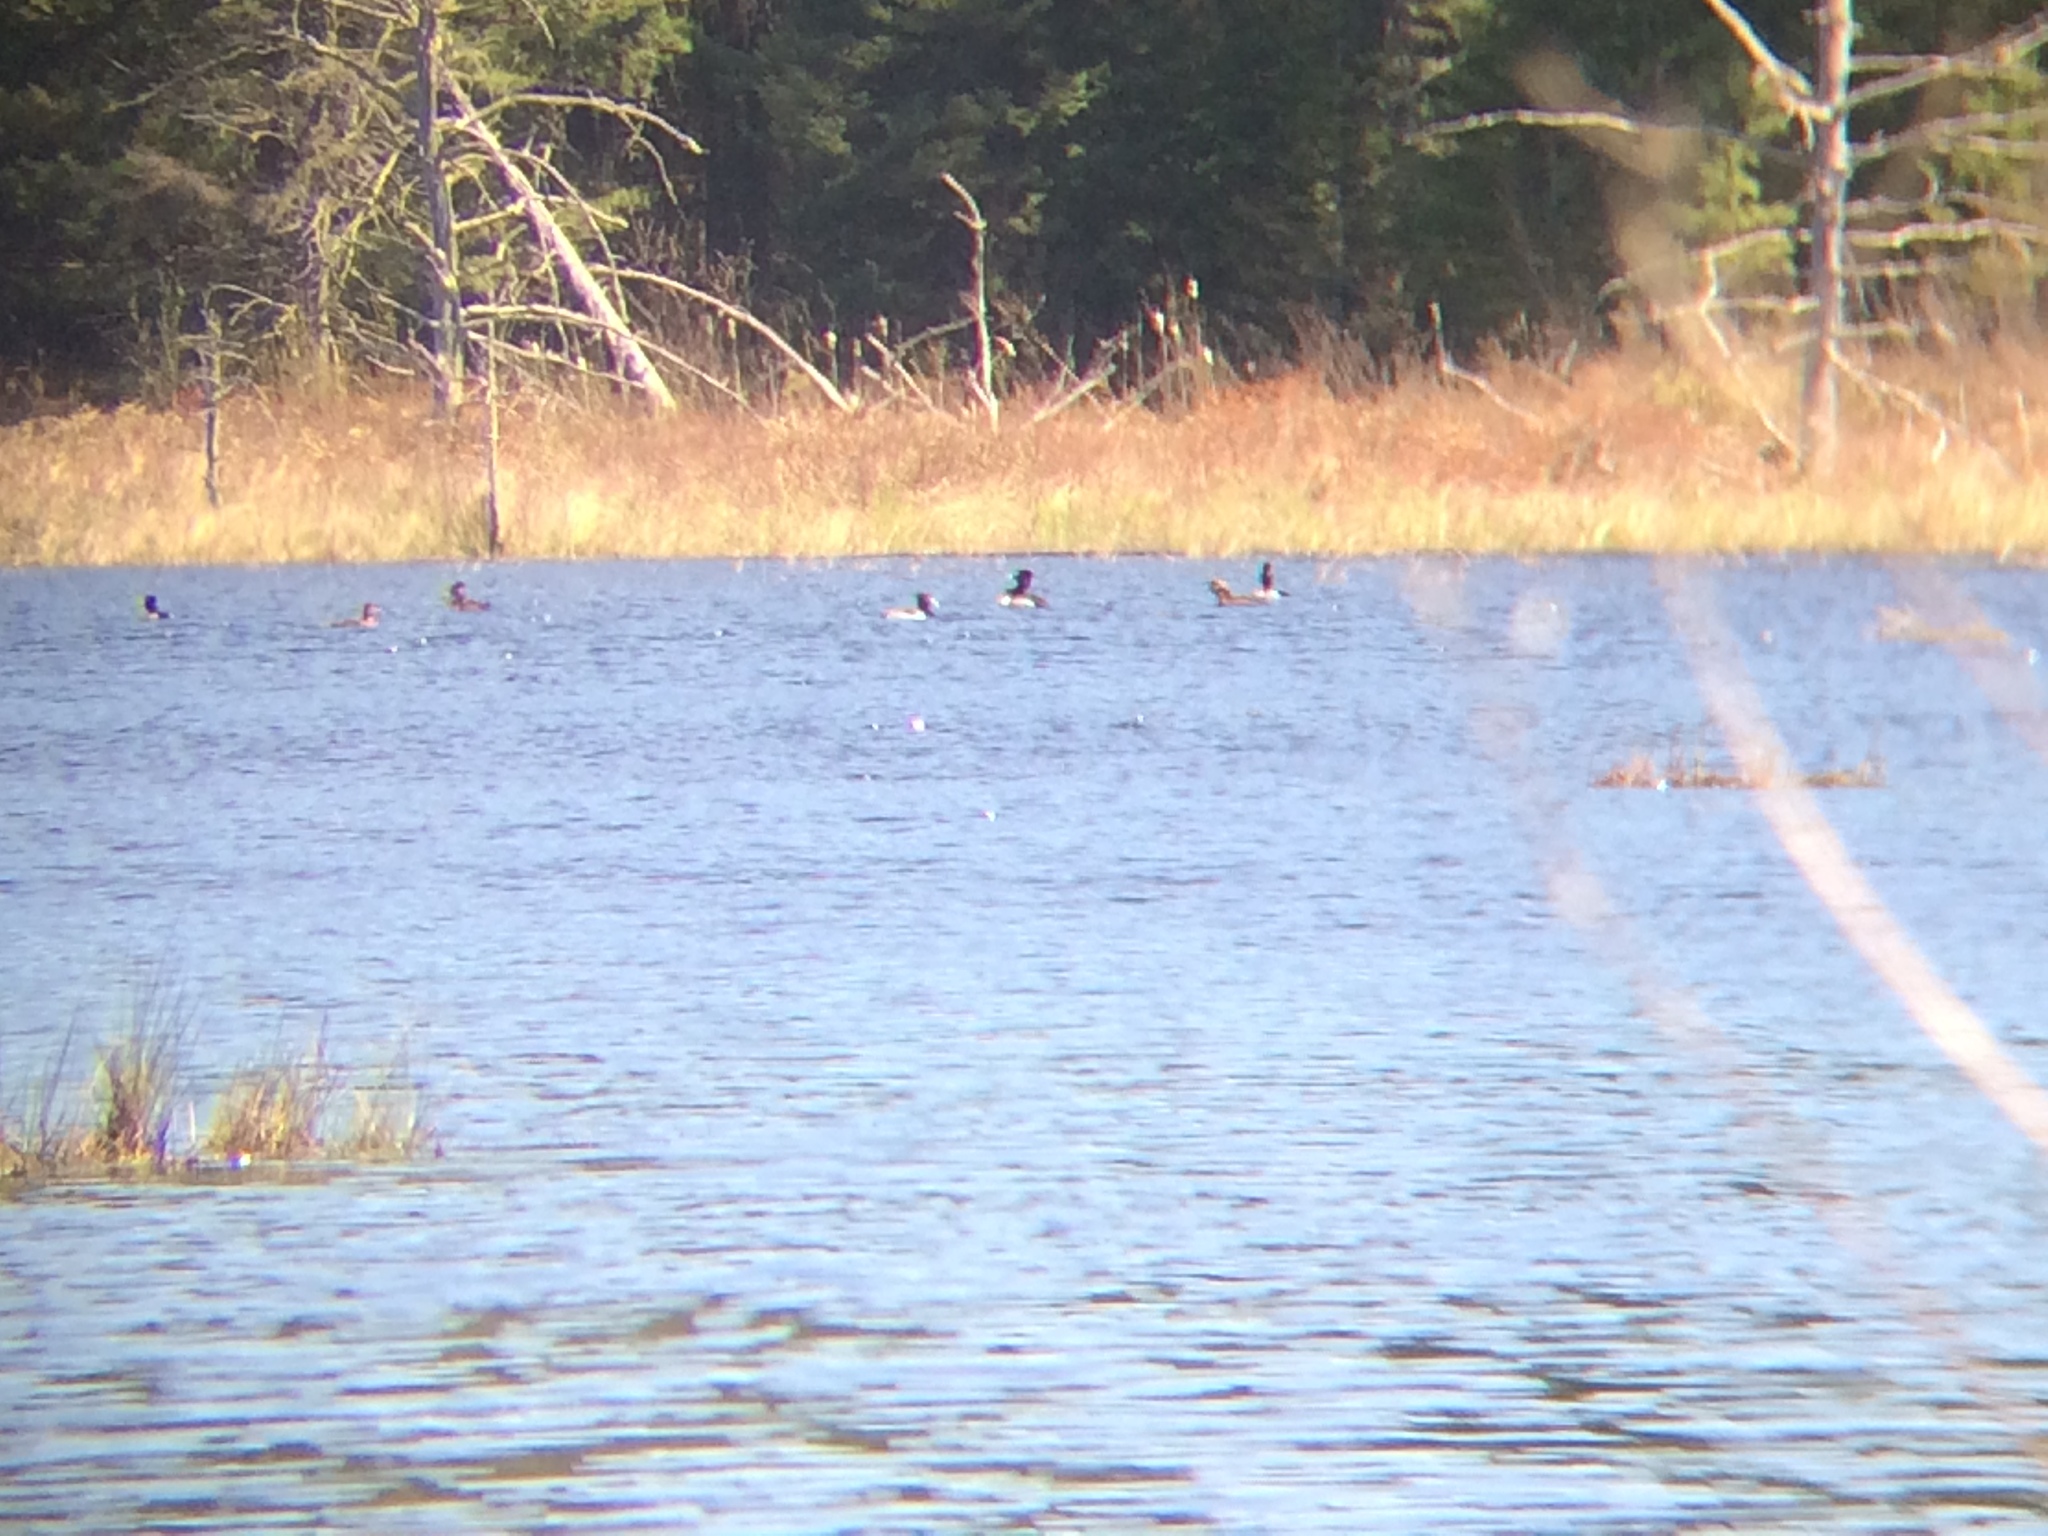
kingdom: Animalia
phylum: Chordata
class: Aves
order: Anseriformes
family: Anatidae
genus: Aythya
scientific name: Aythya collaris
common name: Ring-necked duck
